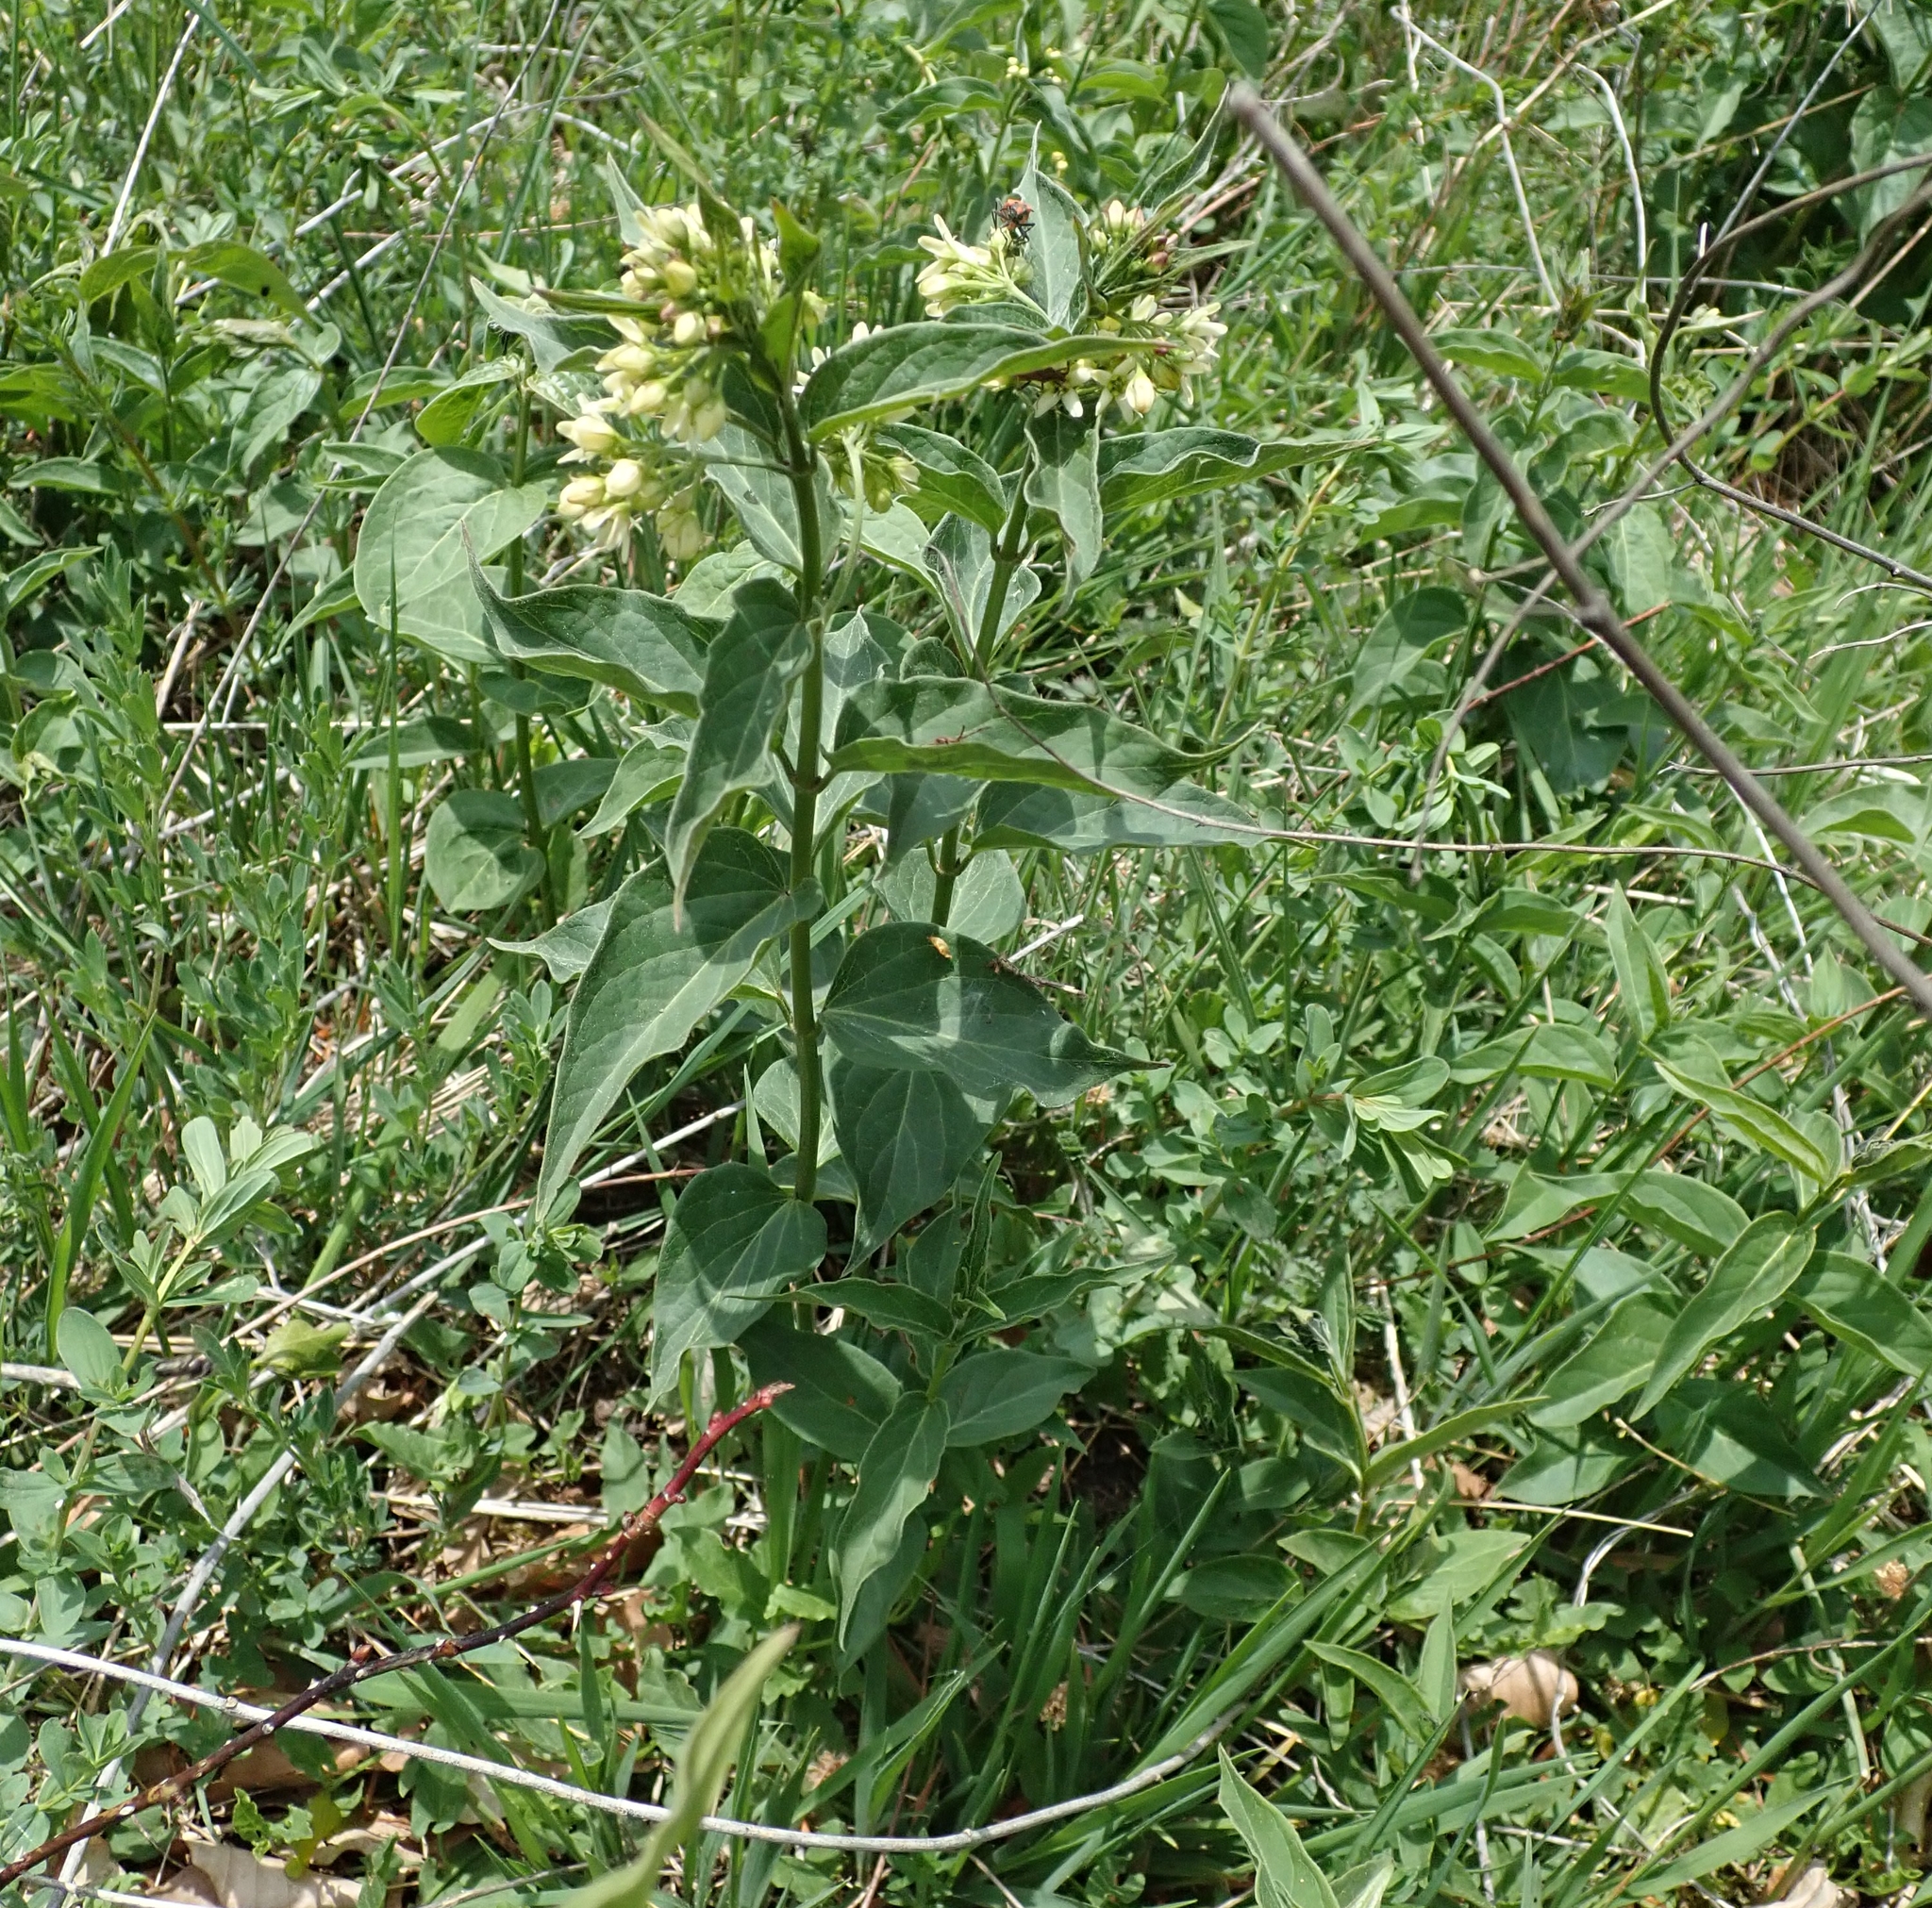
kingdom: Plantae
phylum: Tracheophyta
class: Magnoliopsida
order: Gentianales
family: Apocynaceae
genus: Vincetoxicum
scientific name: Vincetoxicum hirundinaria
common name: White swallowwort
